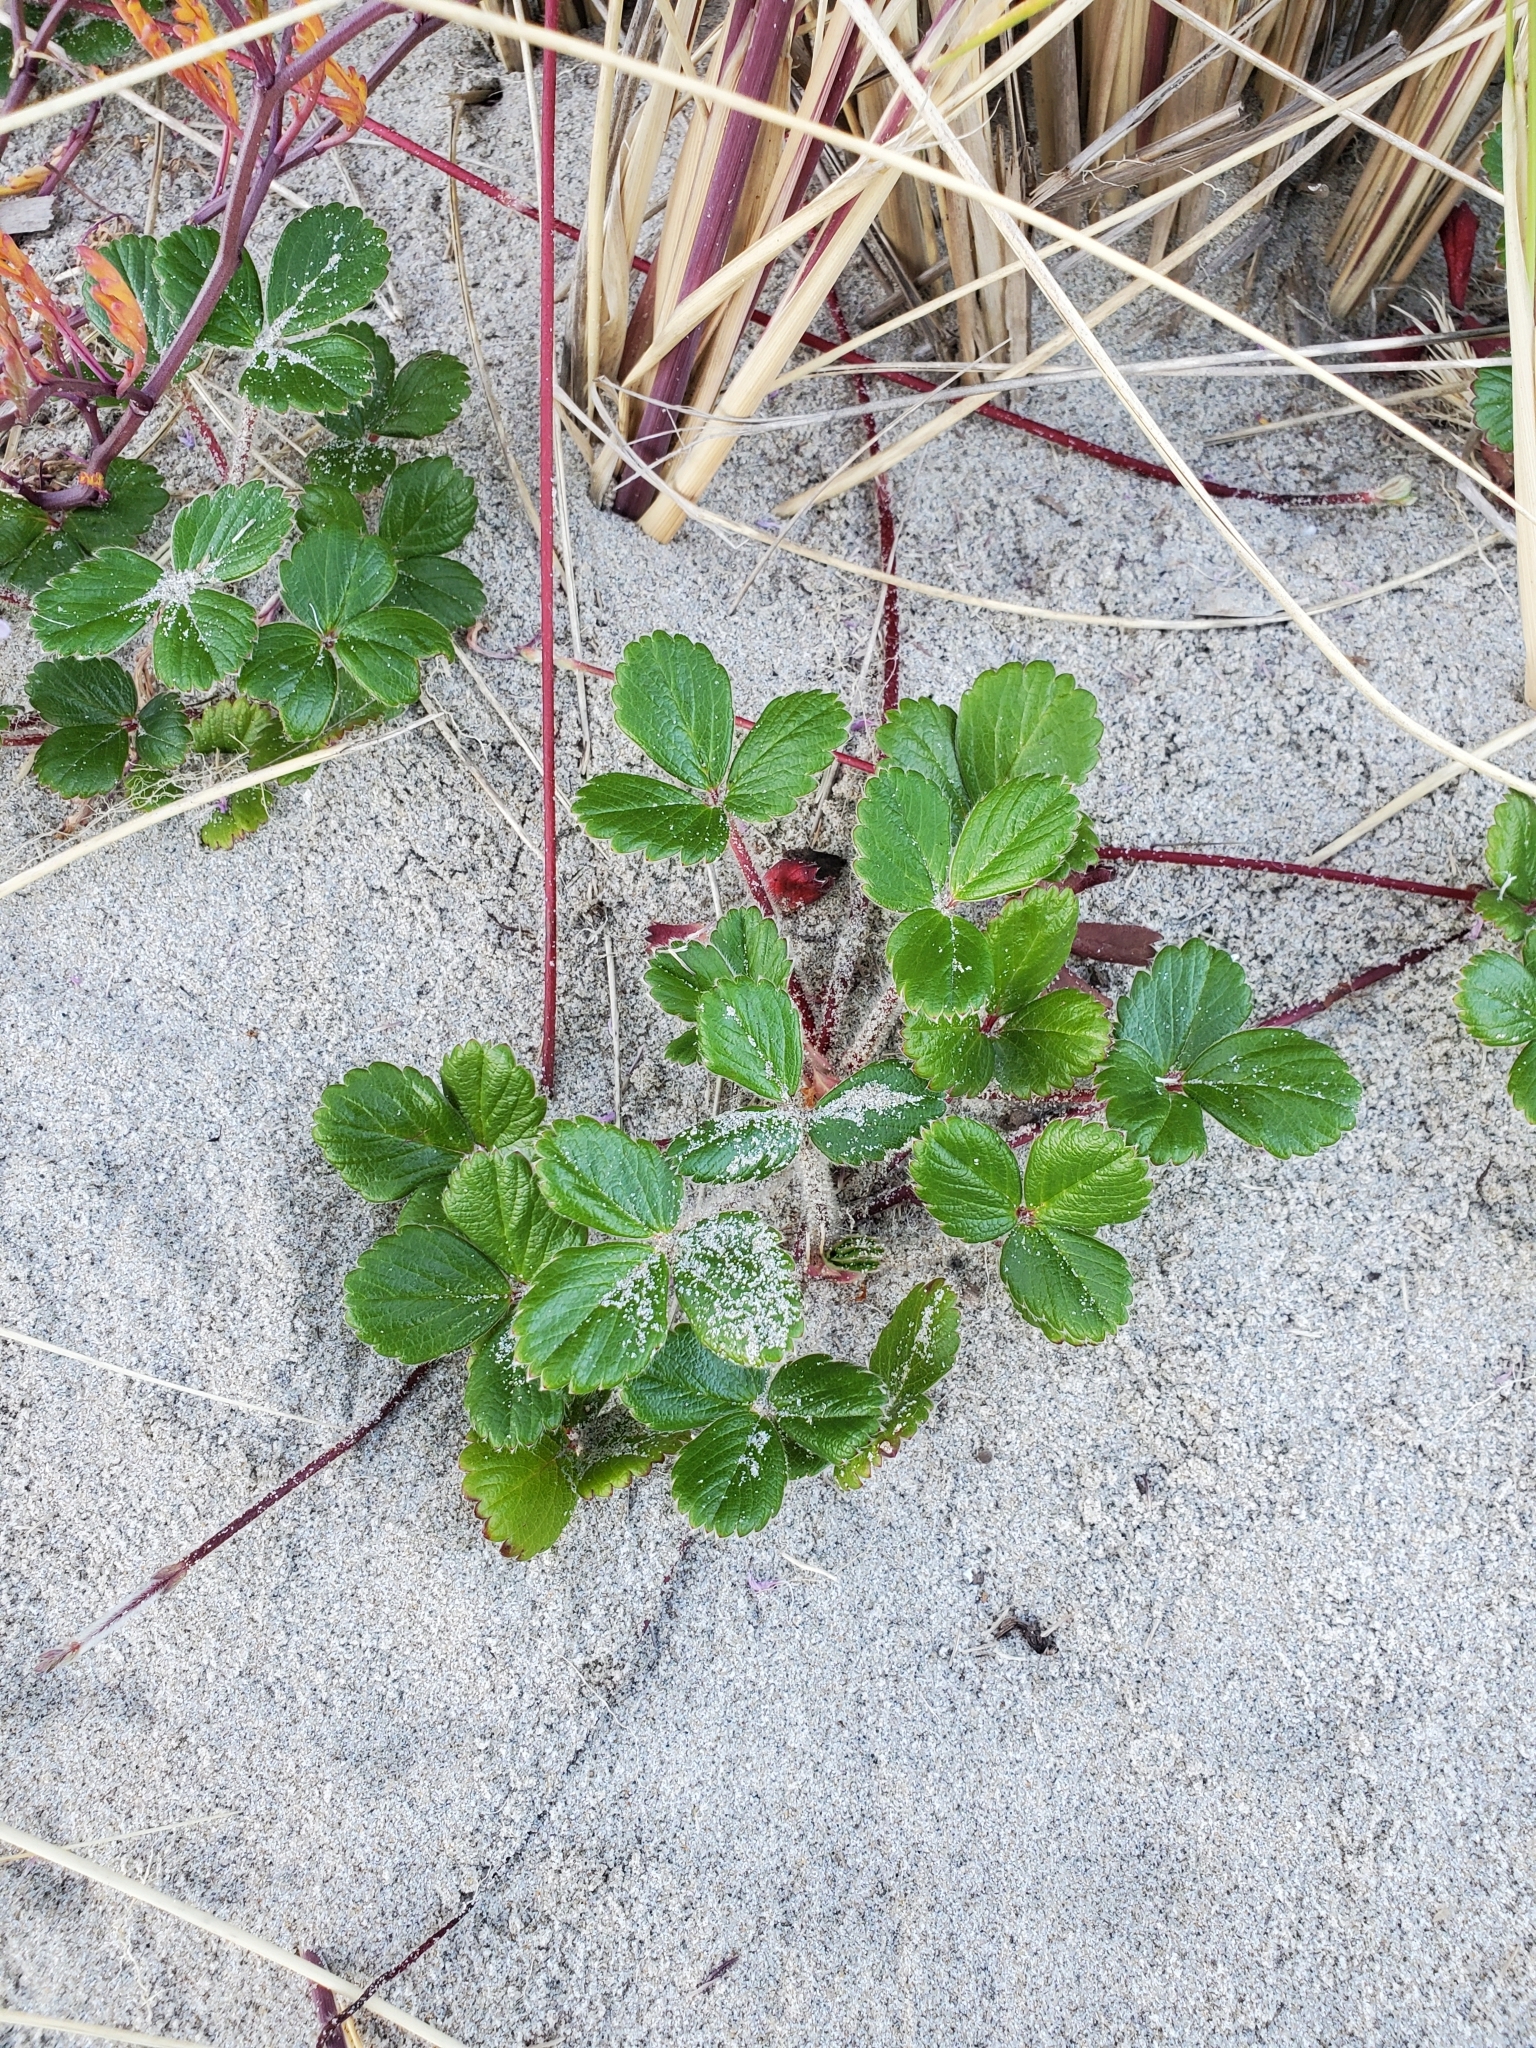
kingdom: Plantae
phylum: Tracheophyta
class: Magnoliopsida
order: Rosales
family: Rosaceae
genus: Fragaria
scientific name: Fragaria chiloensis
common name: Beach strawberry
